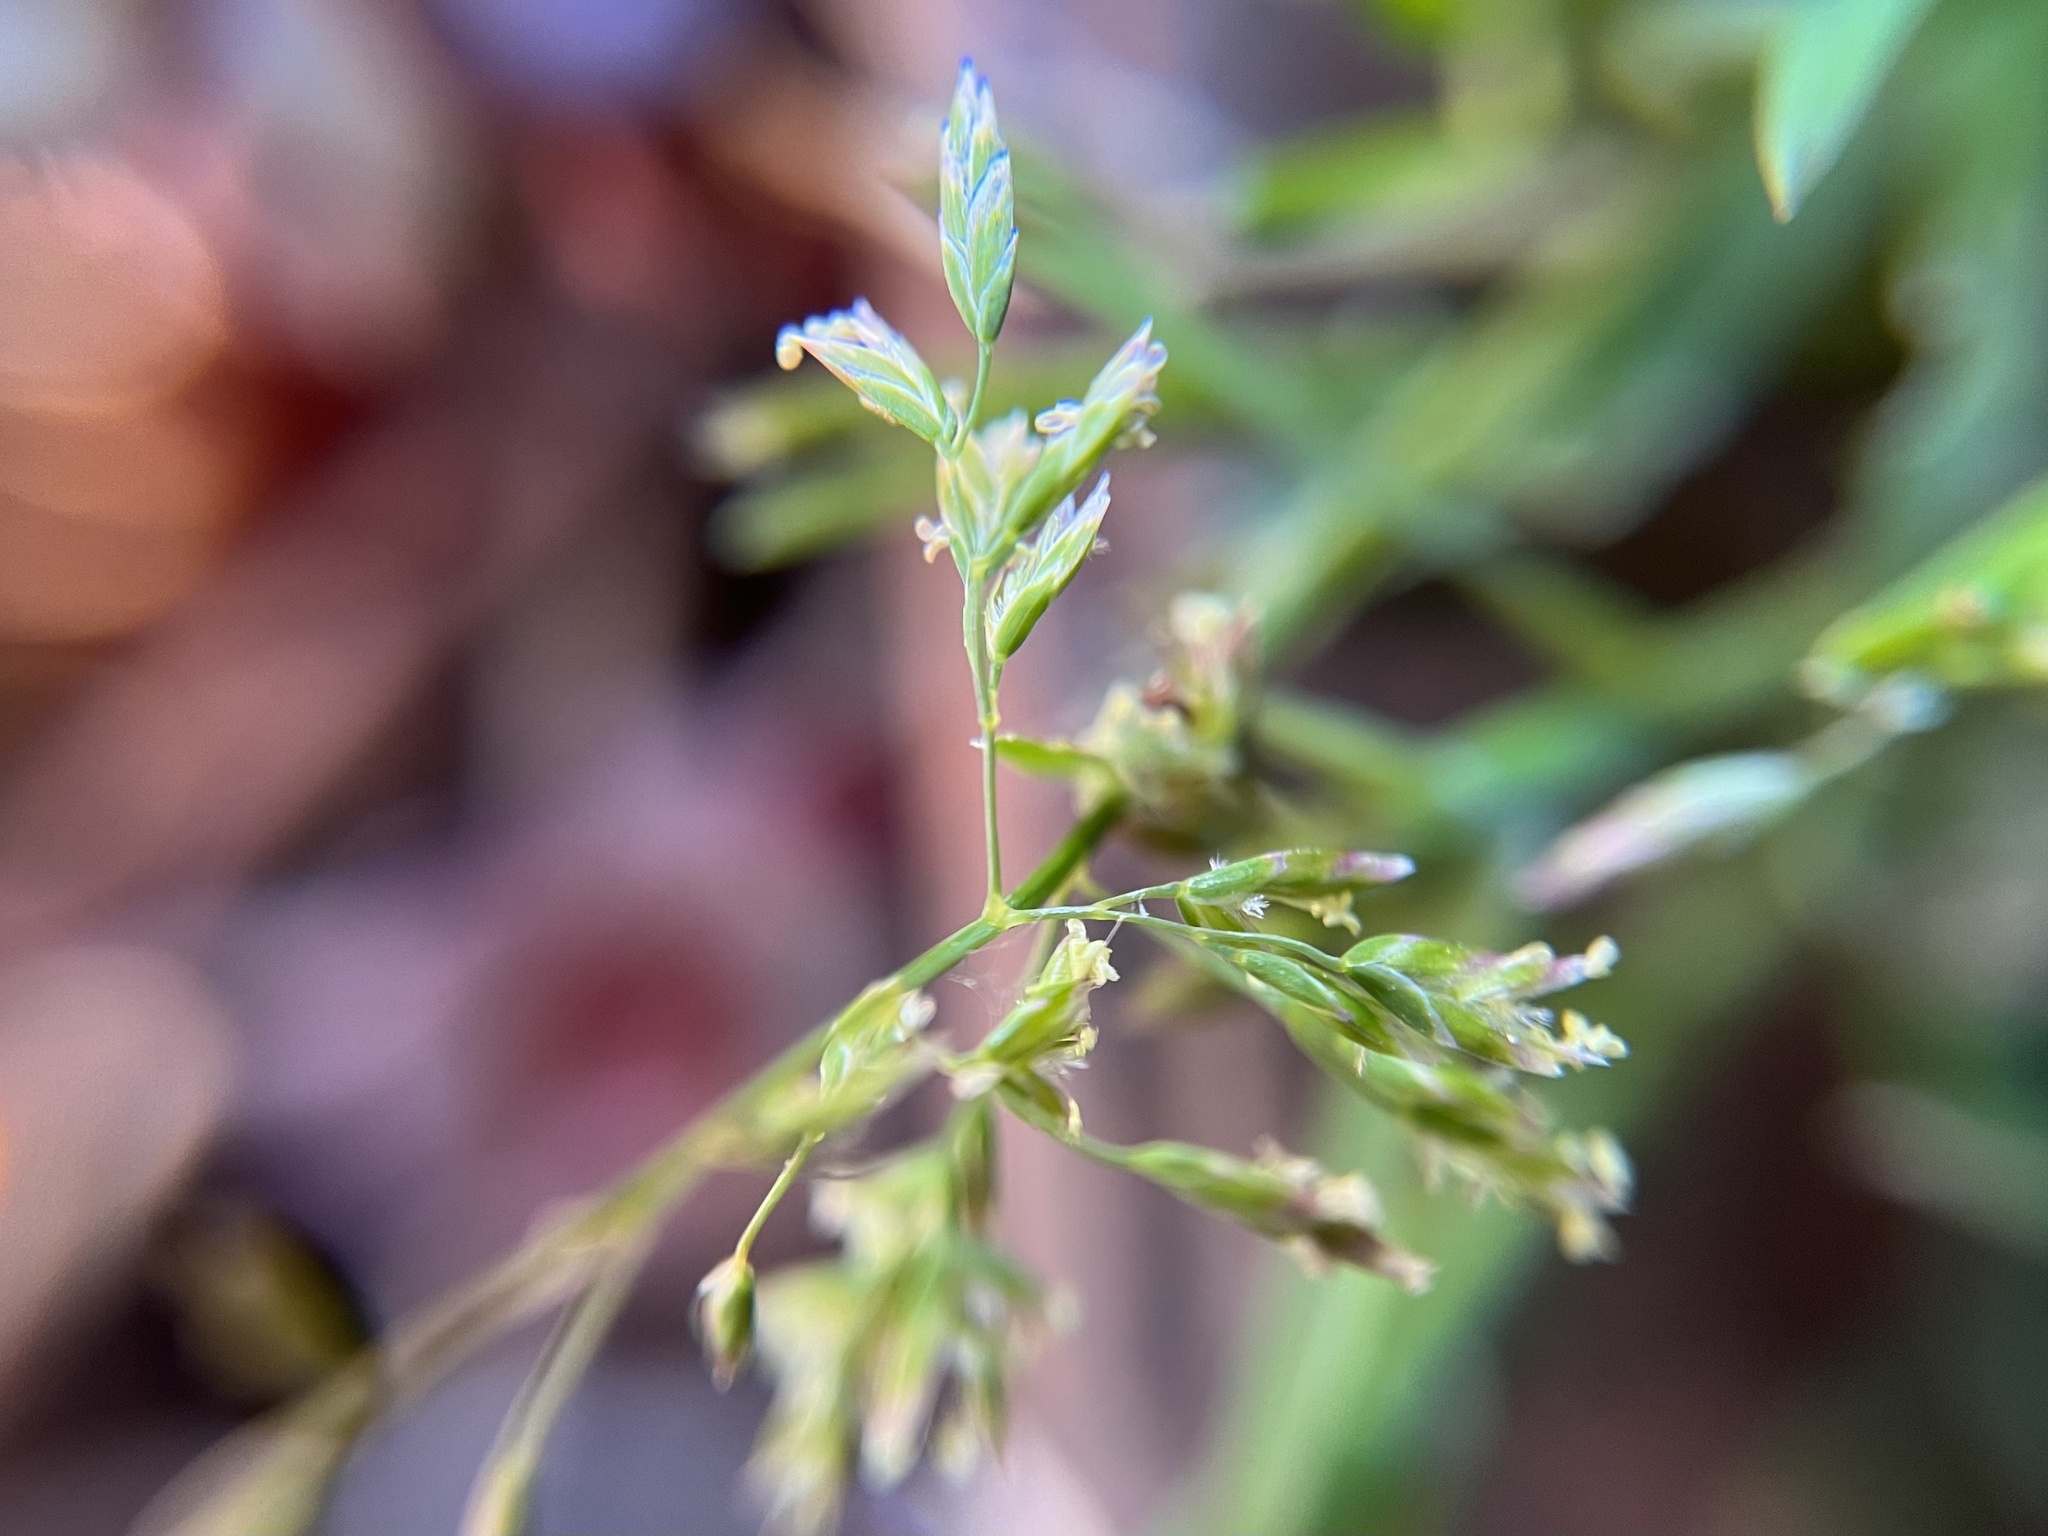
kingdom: Plantae
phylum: Tracheophyta
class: Liliopsida
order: Poales
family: Poaceae
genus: Poa
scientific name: Poa annua
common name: Annual bluegrass
